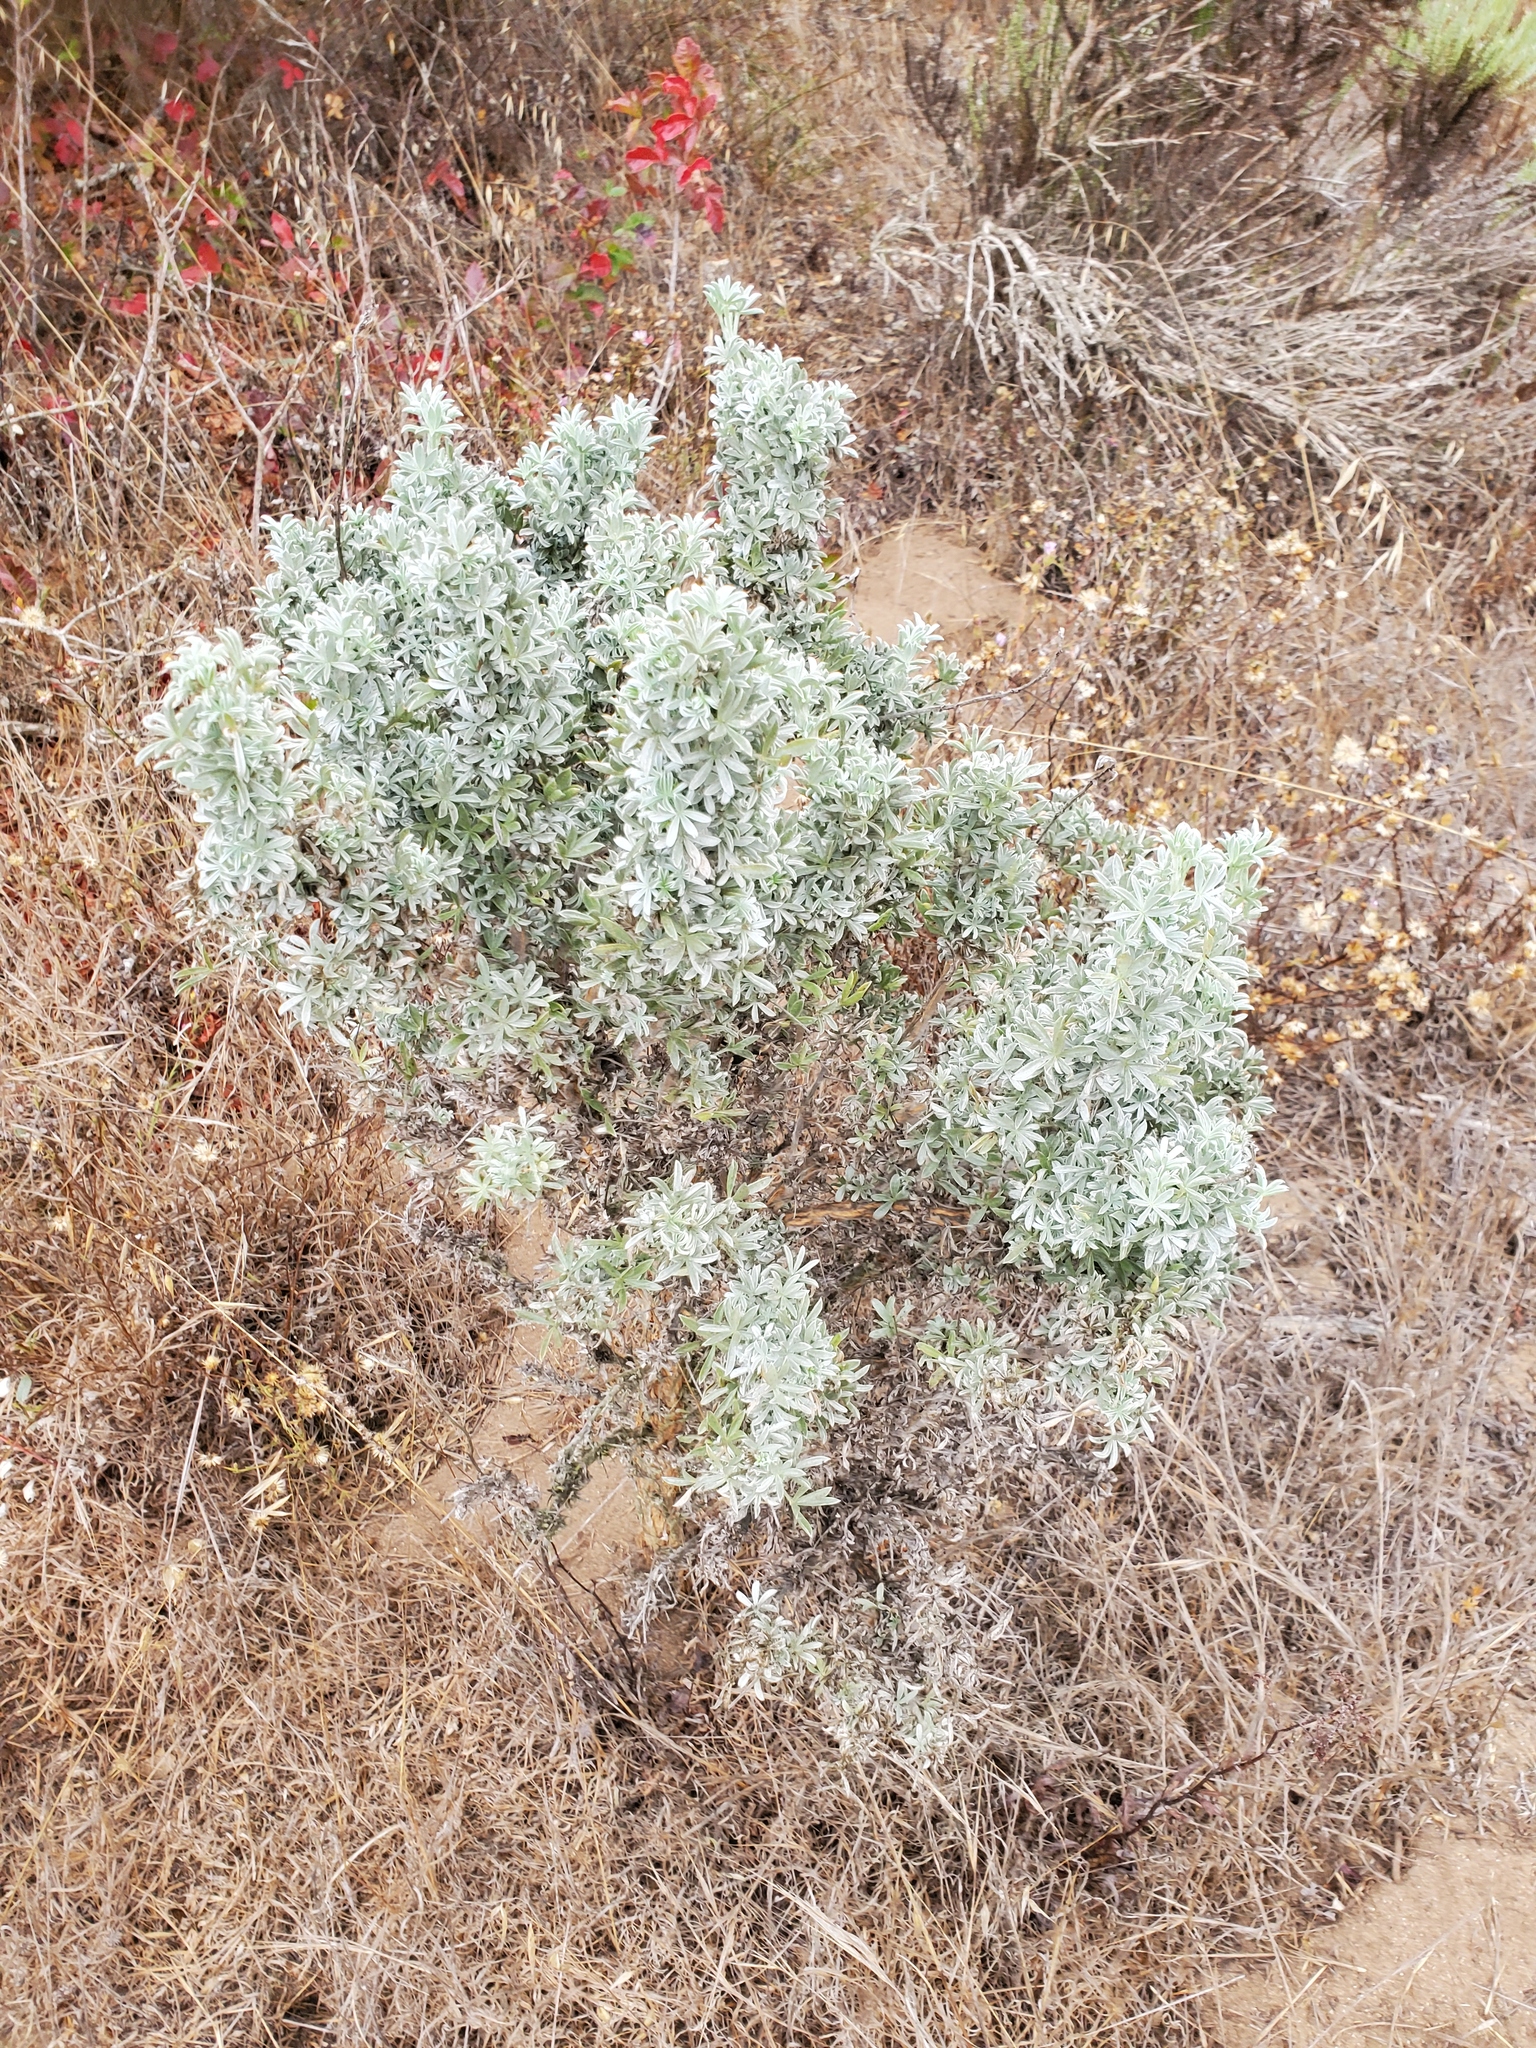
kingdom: Plantae
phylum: Tracheophyta
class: Magnoliopsida
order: Fabales
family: Fabaceae
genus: Lupinus
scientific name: Lupinus chamissonis
